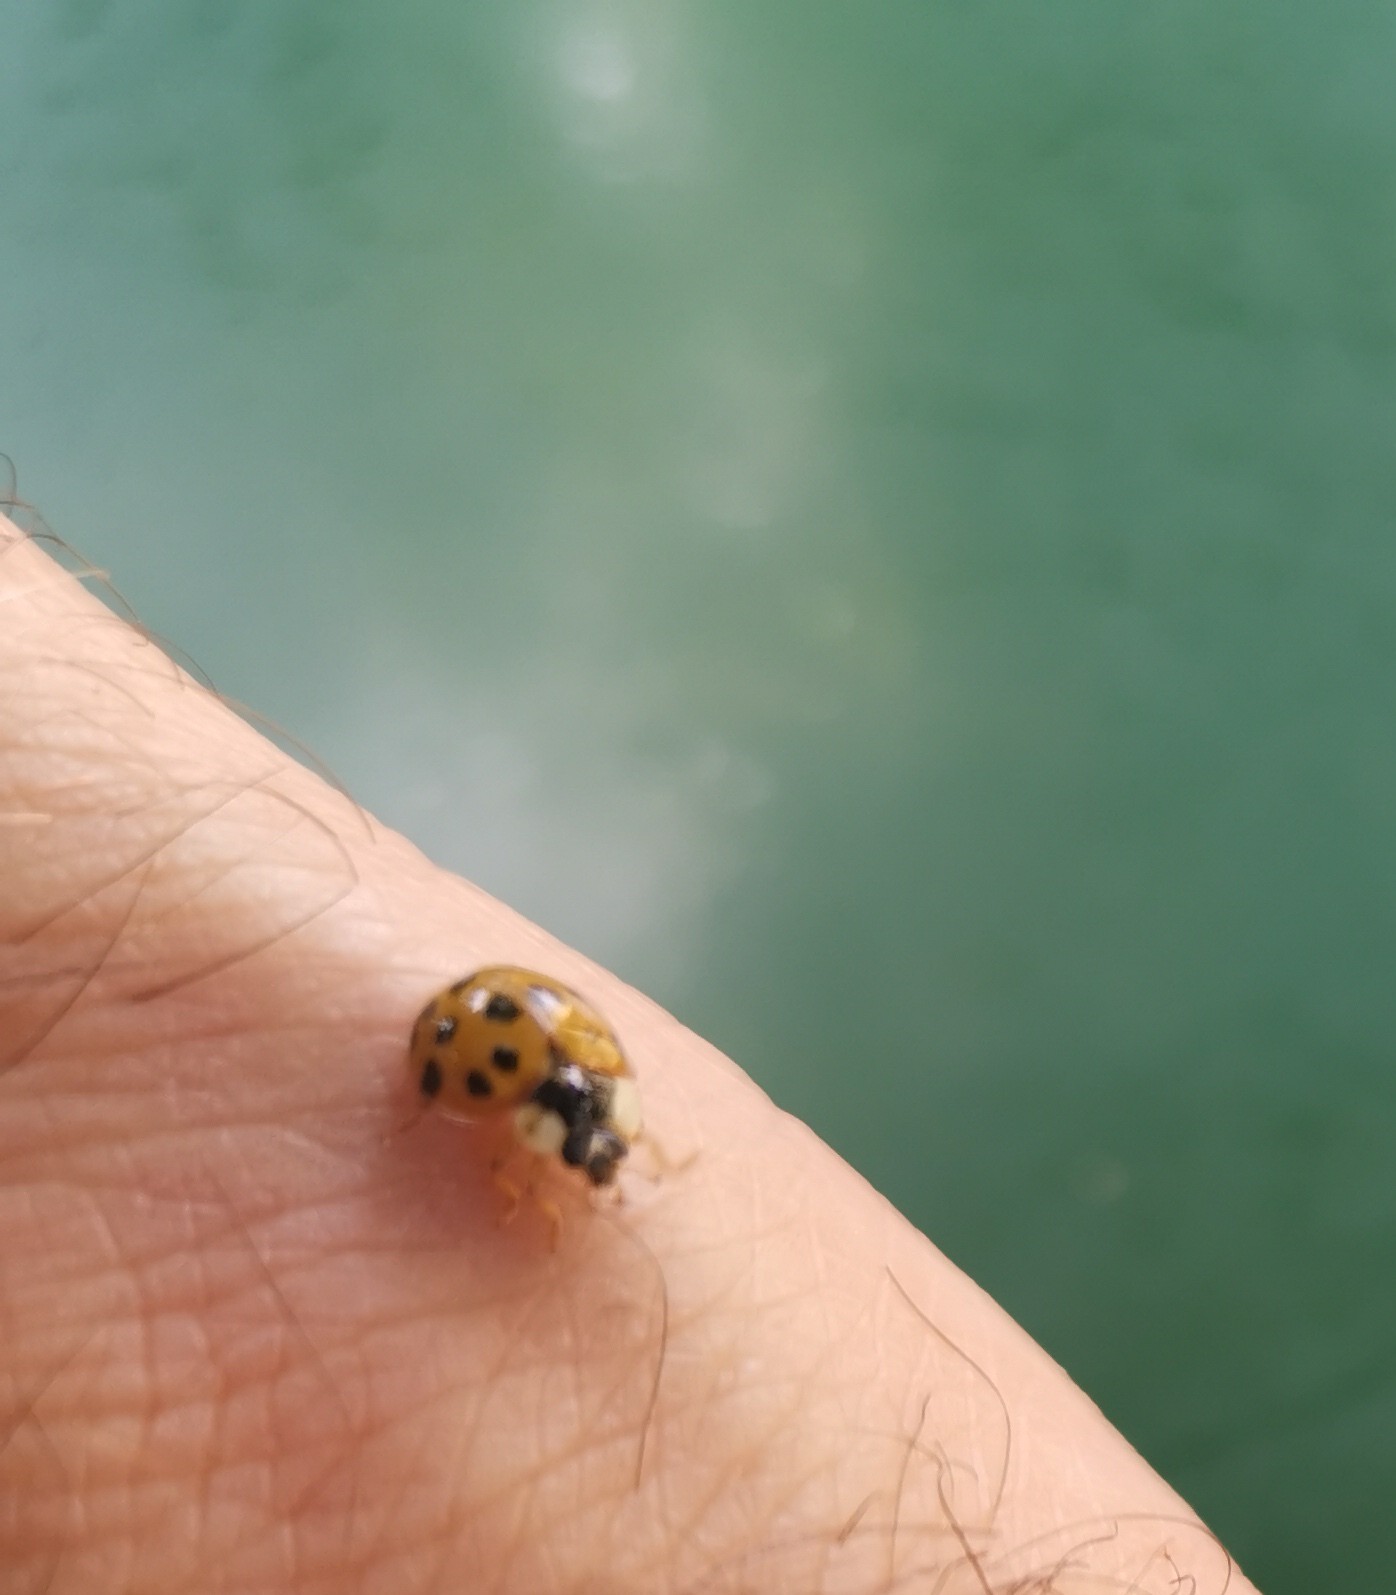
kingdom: Animalia
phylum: Arthropoda
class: Insecta
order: Coleoptera
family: Coccinellidae
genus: Harmonia
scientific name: Harmonia axyridis
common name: Harlequin ladybird
